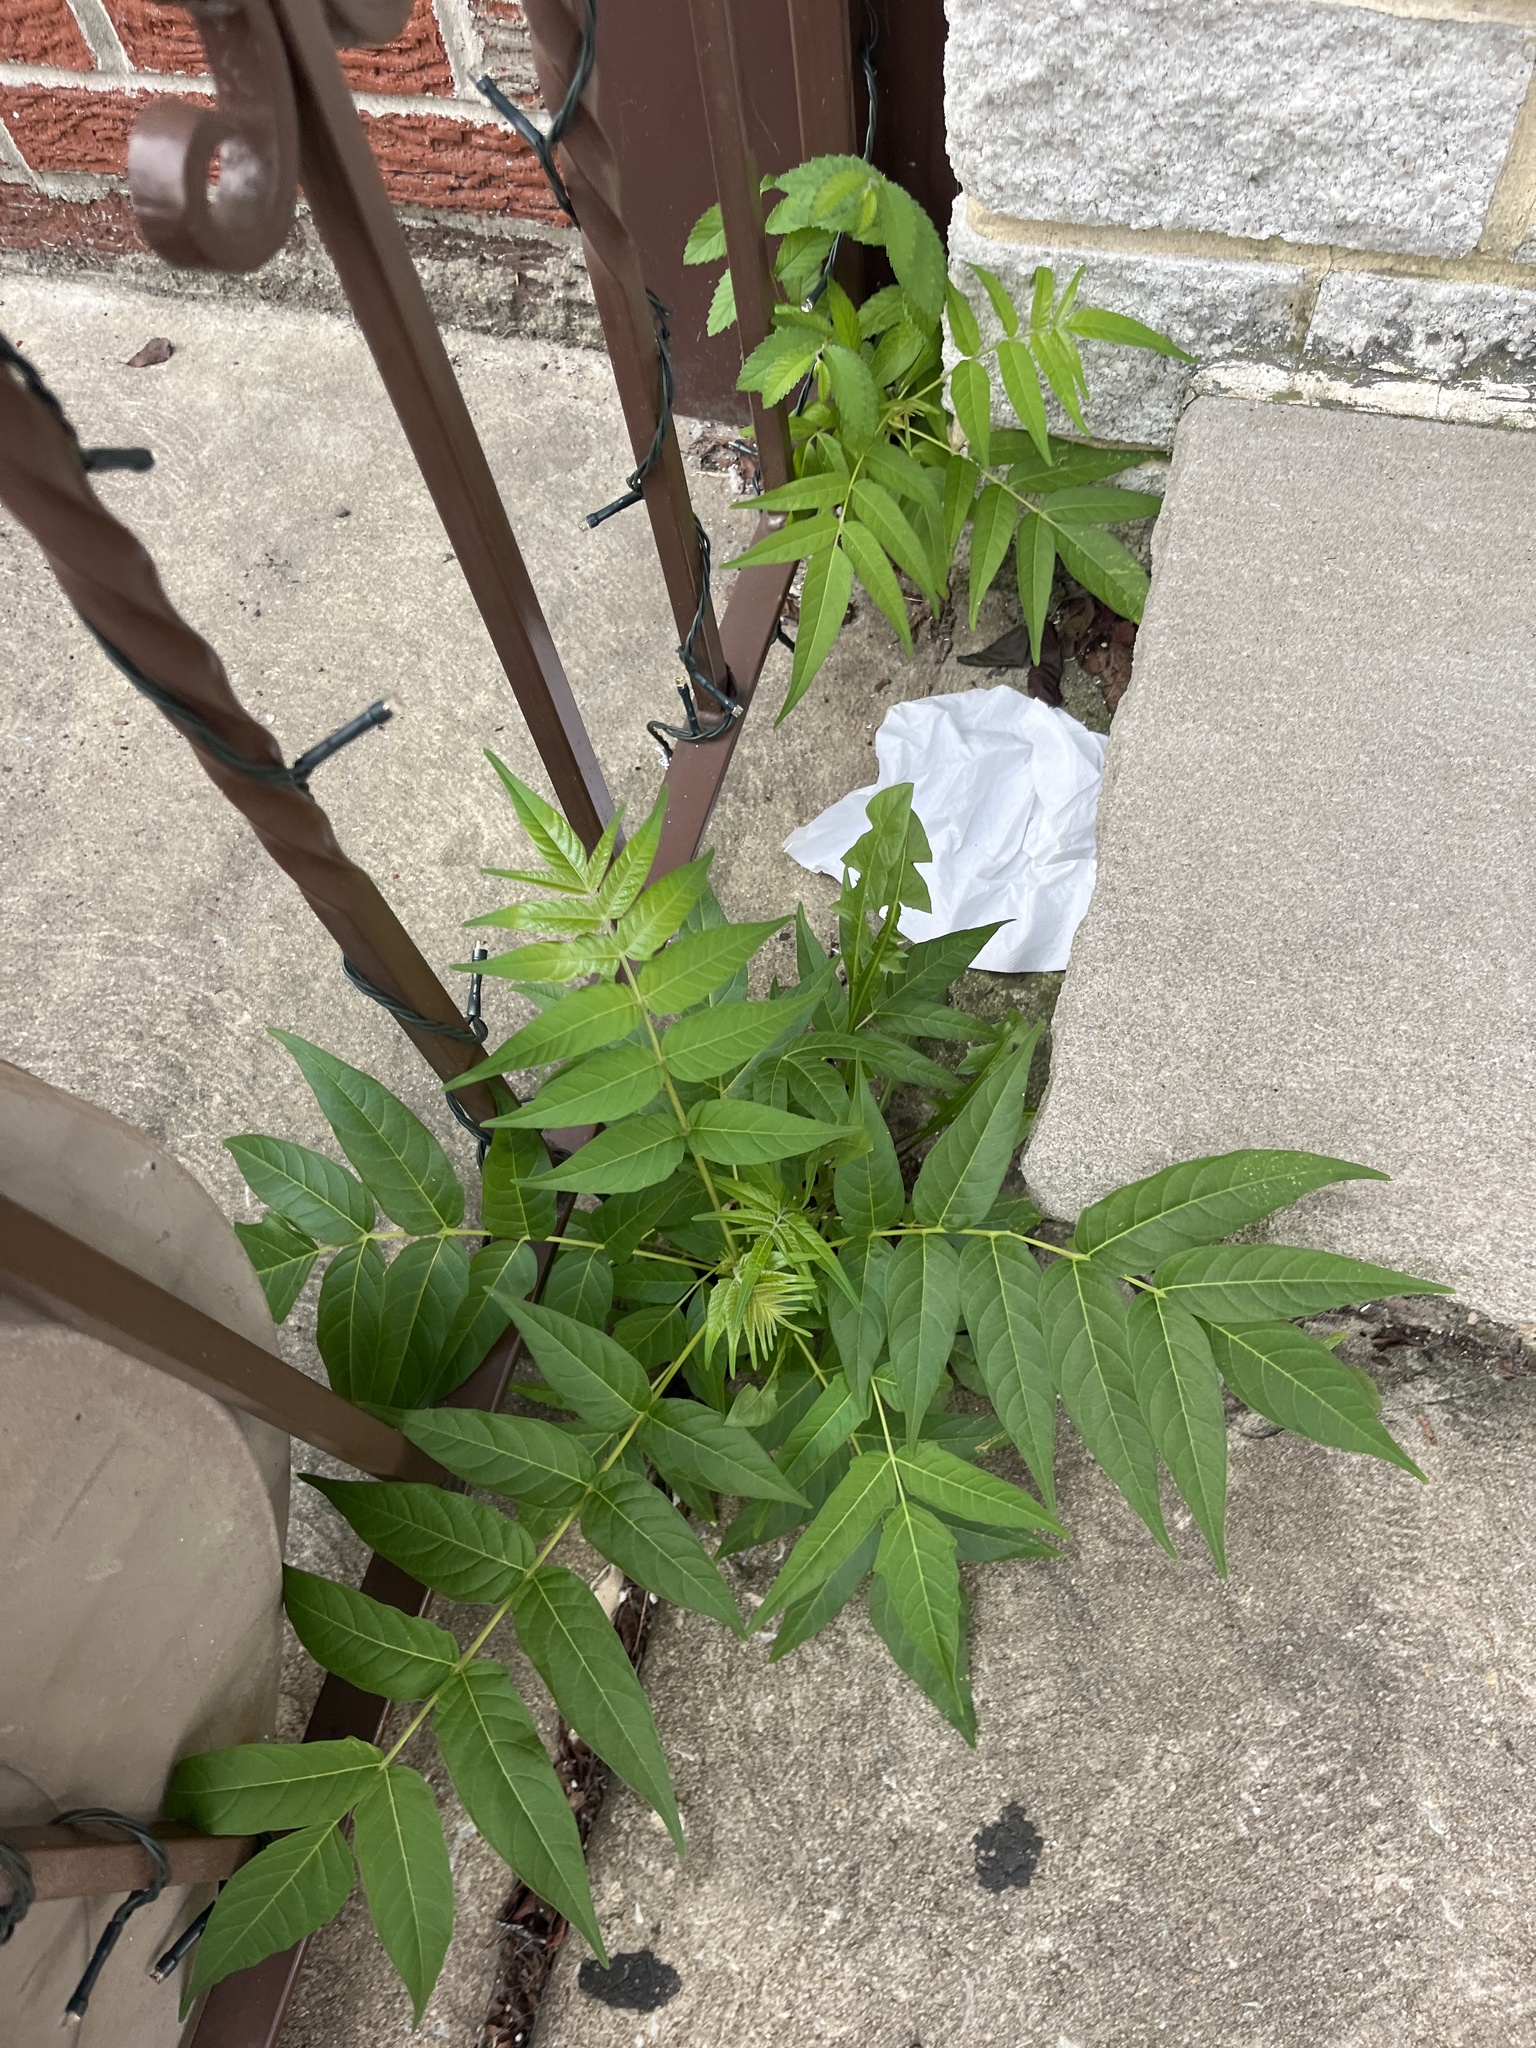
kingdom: Plantae
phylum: Tracheophyta
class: Magnoliopsida
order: Sapindales
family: Simaroubaceae
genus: Ailanthus
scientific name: Ailanthus altissima
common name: Tree-of-heaven
